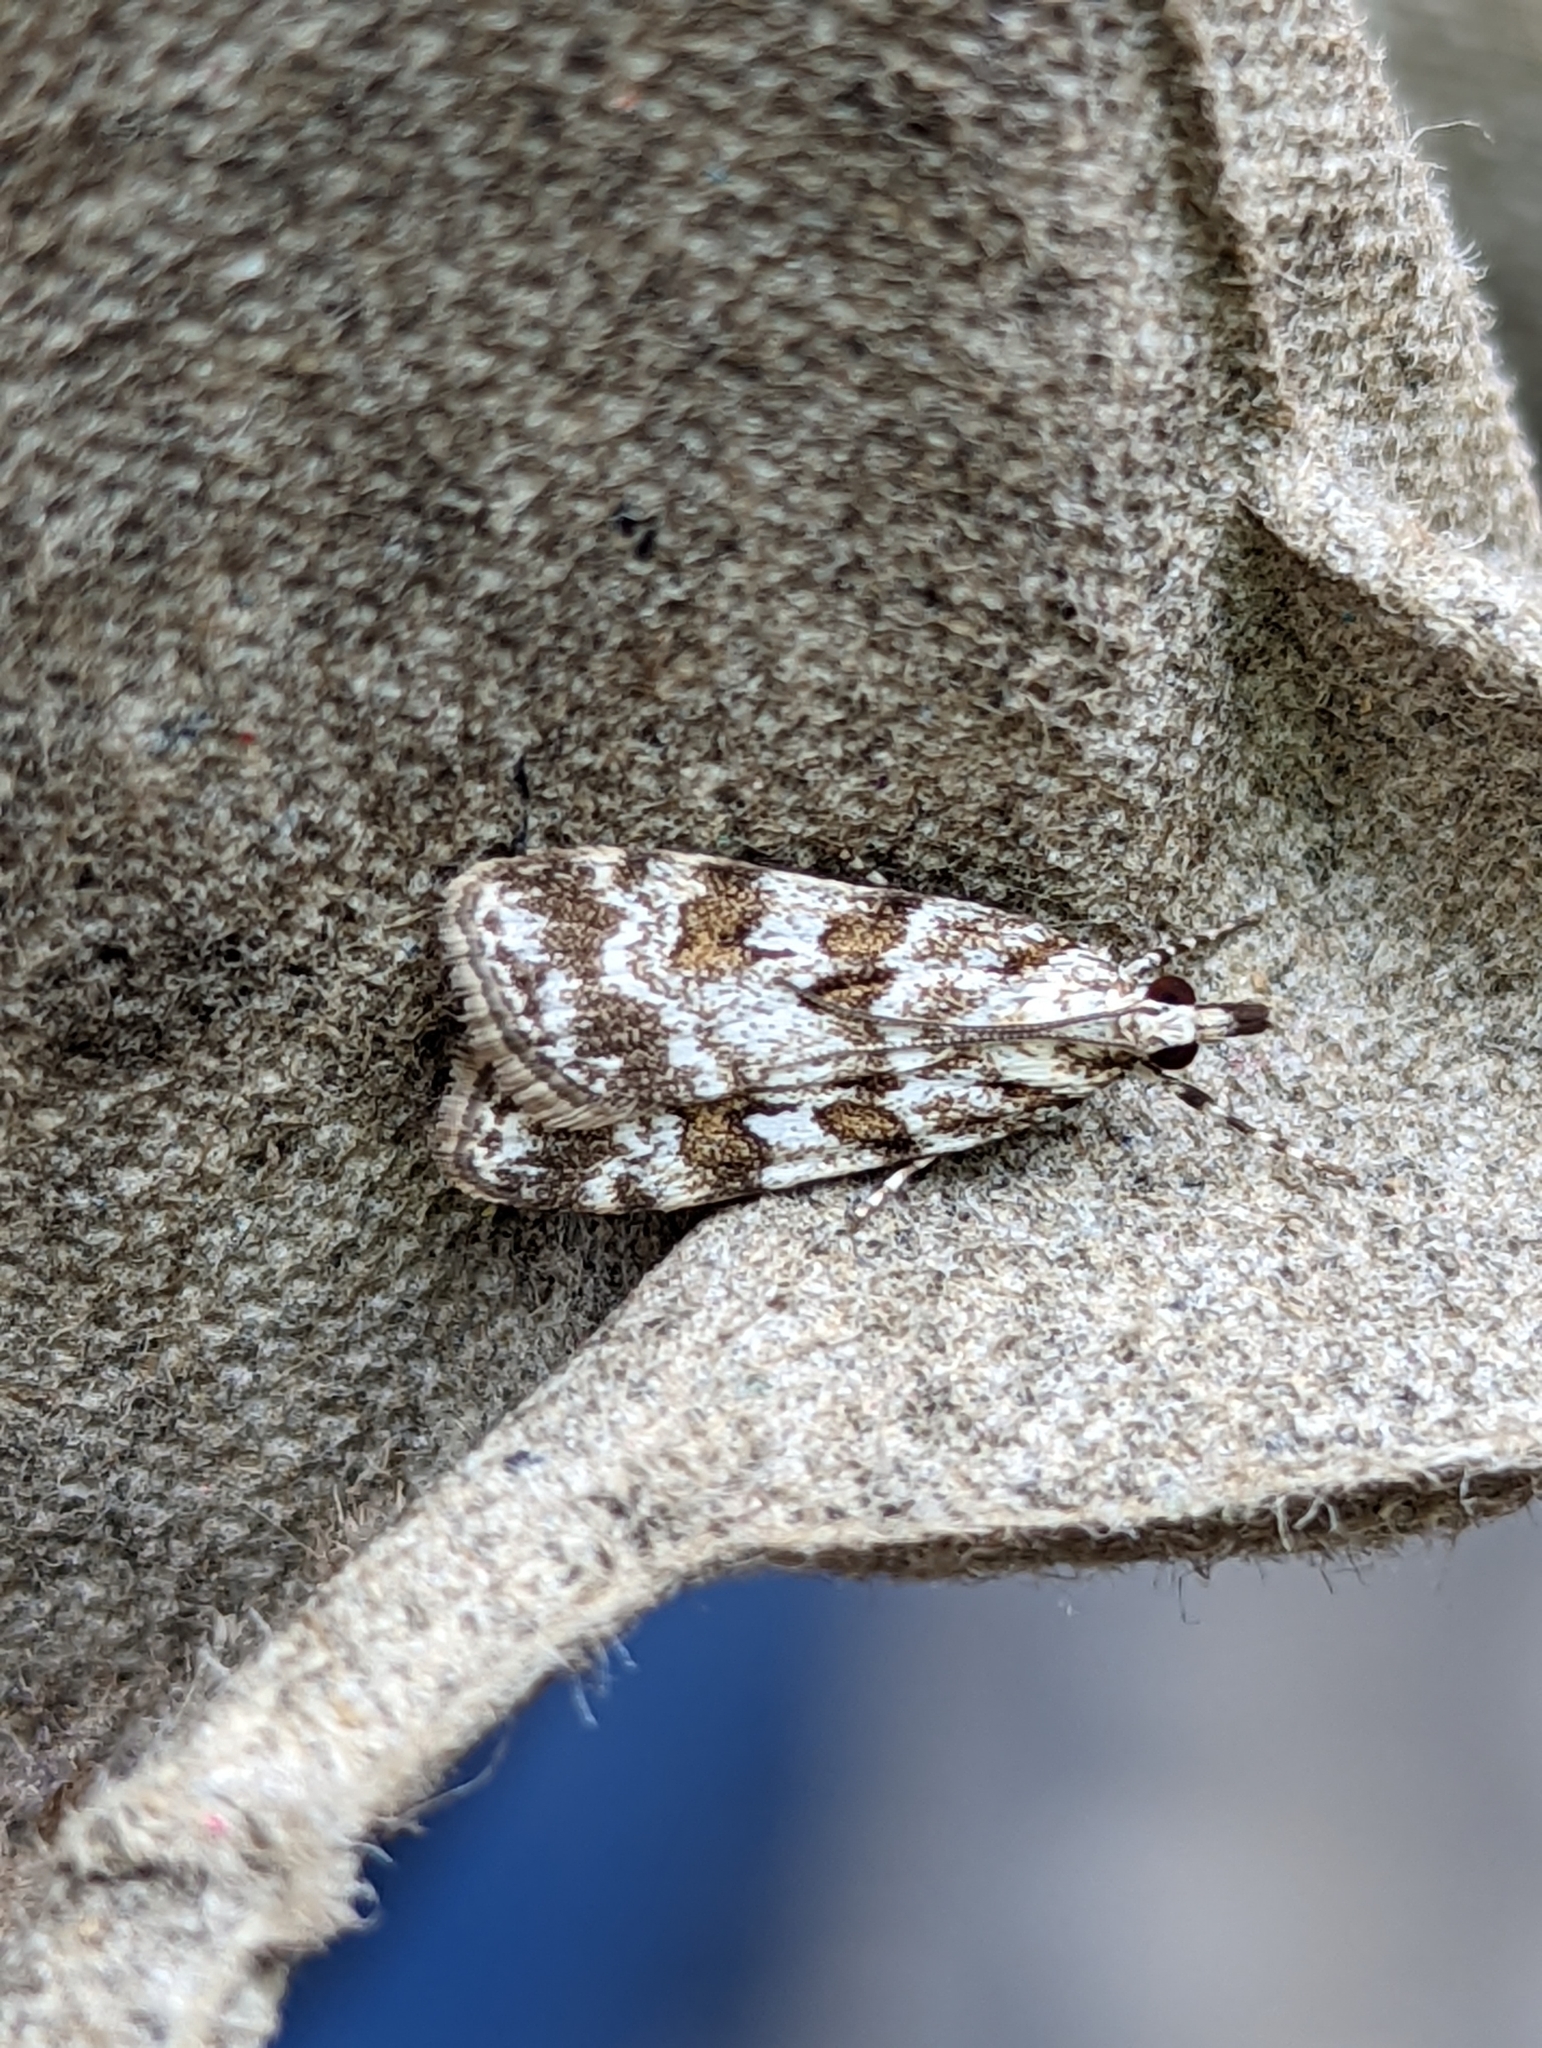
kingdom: Animalia
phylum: Arthropoda
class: Insecta
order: Lepidoptera
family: Crambidae
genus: Scoparia
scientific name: Scoparia pyralella
